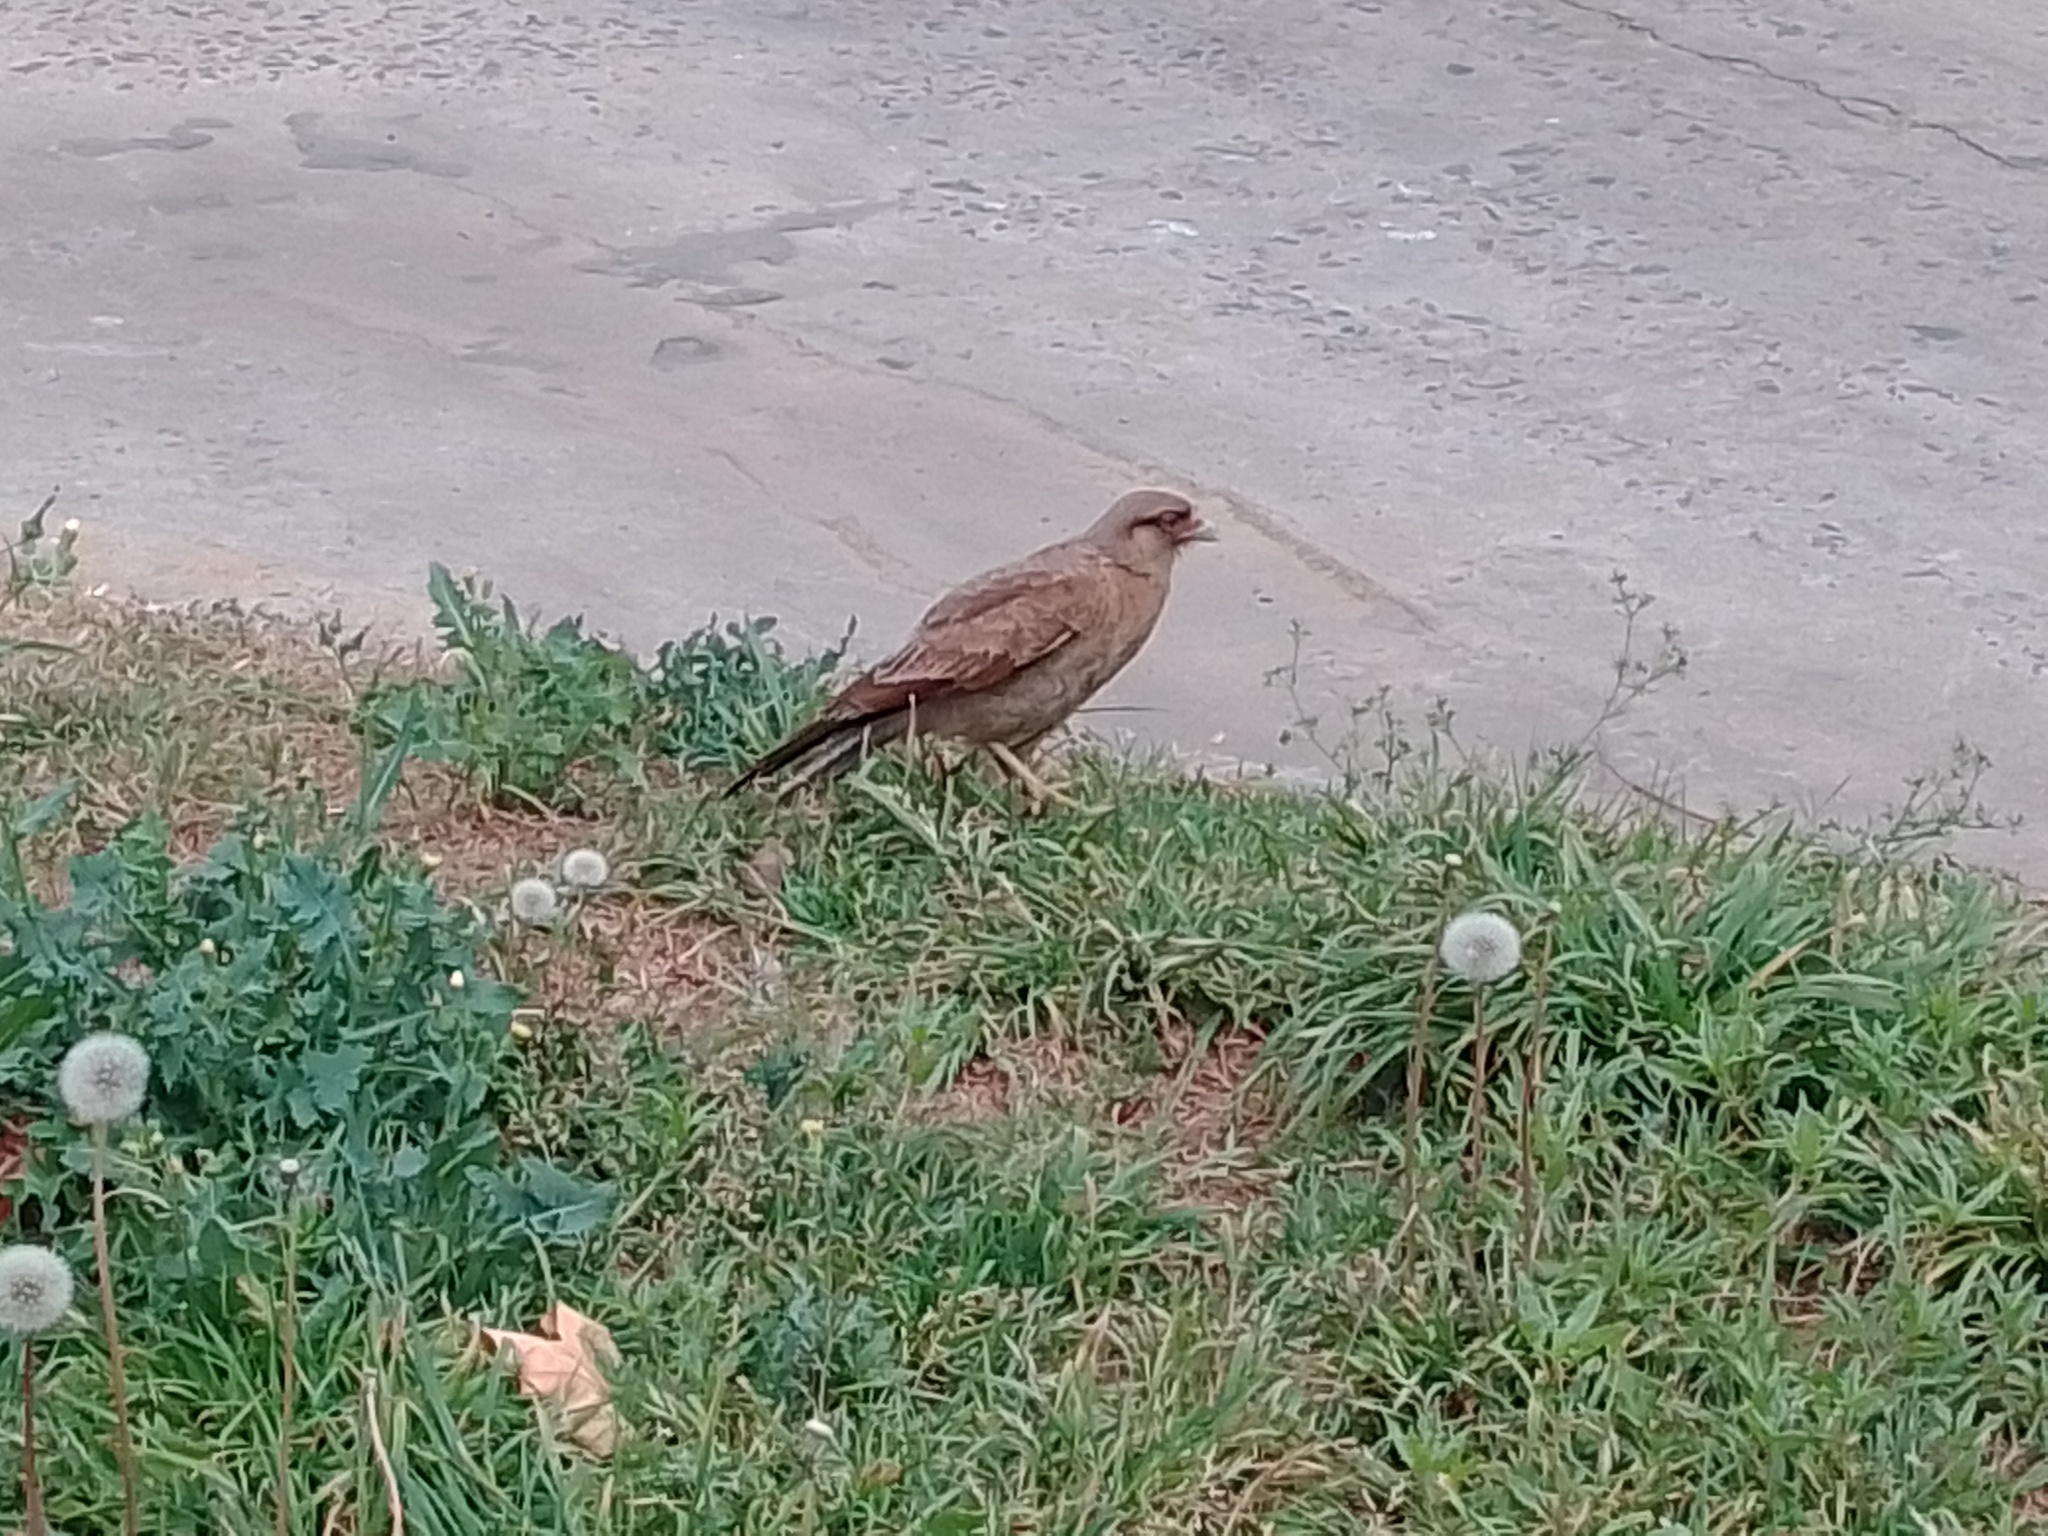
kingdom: Animalia
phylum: Chordata
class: Aves
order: Falconiformes
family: Falconidae
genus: Daptrius
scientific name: Daptrius
